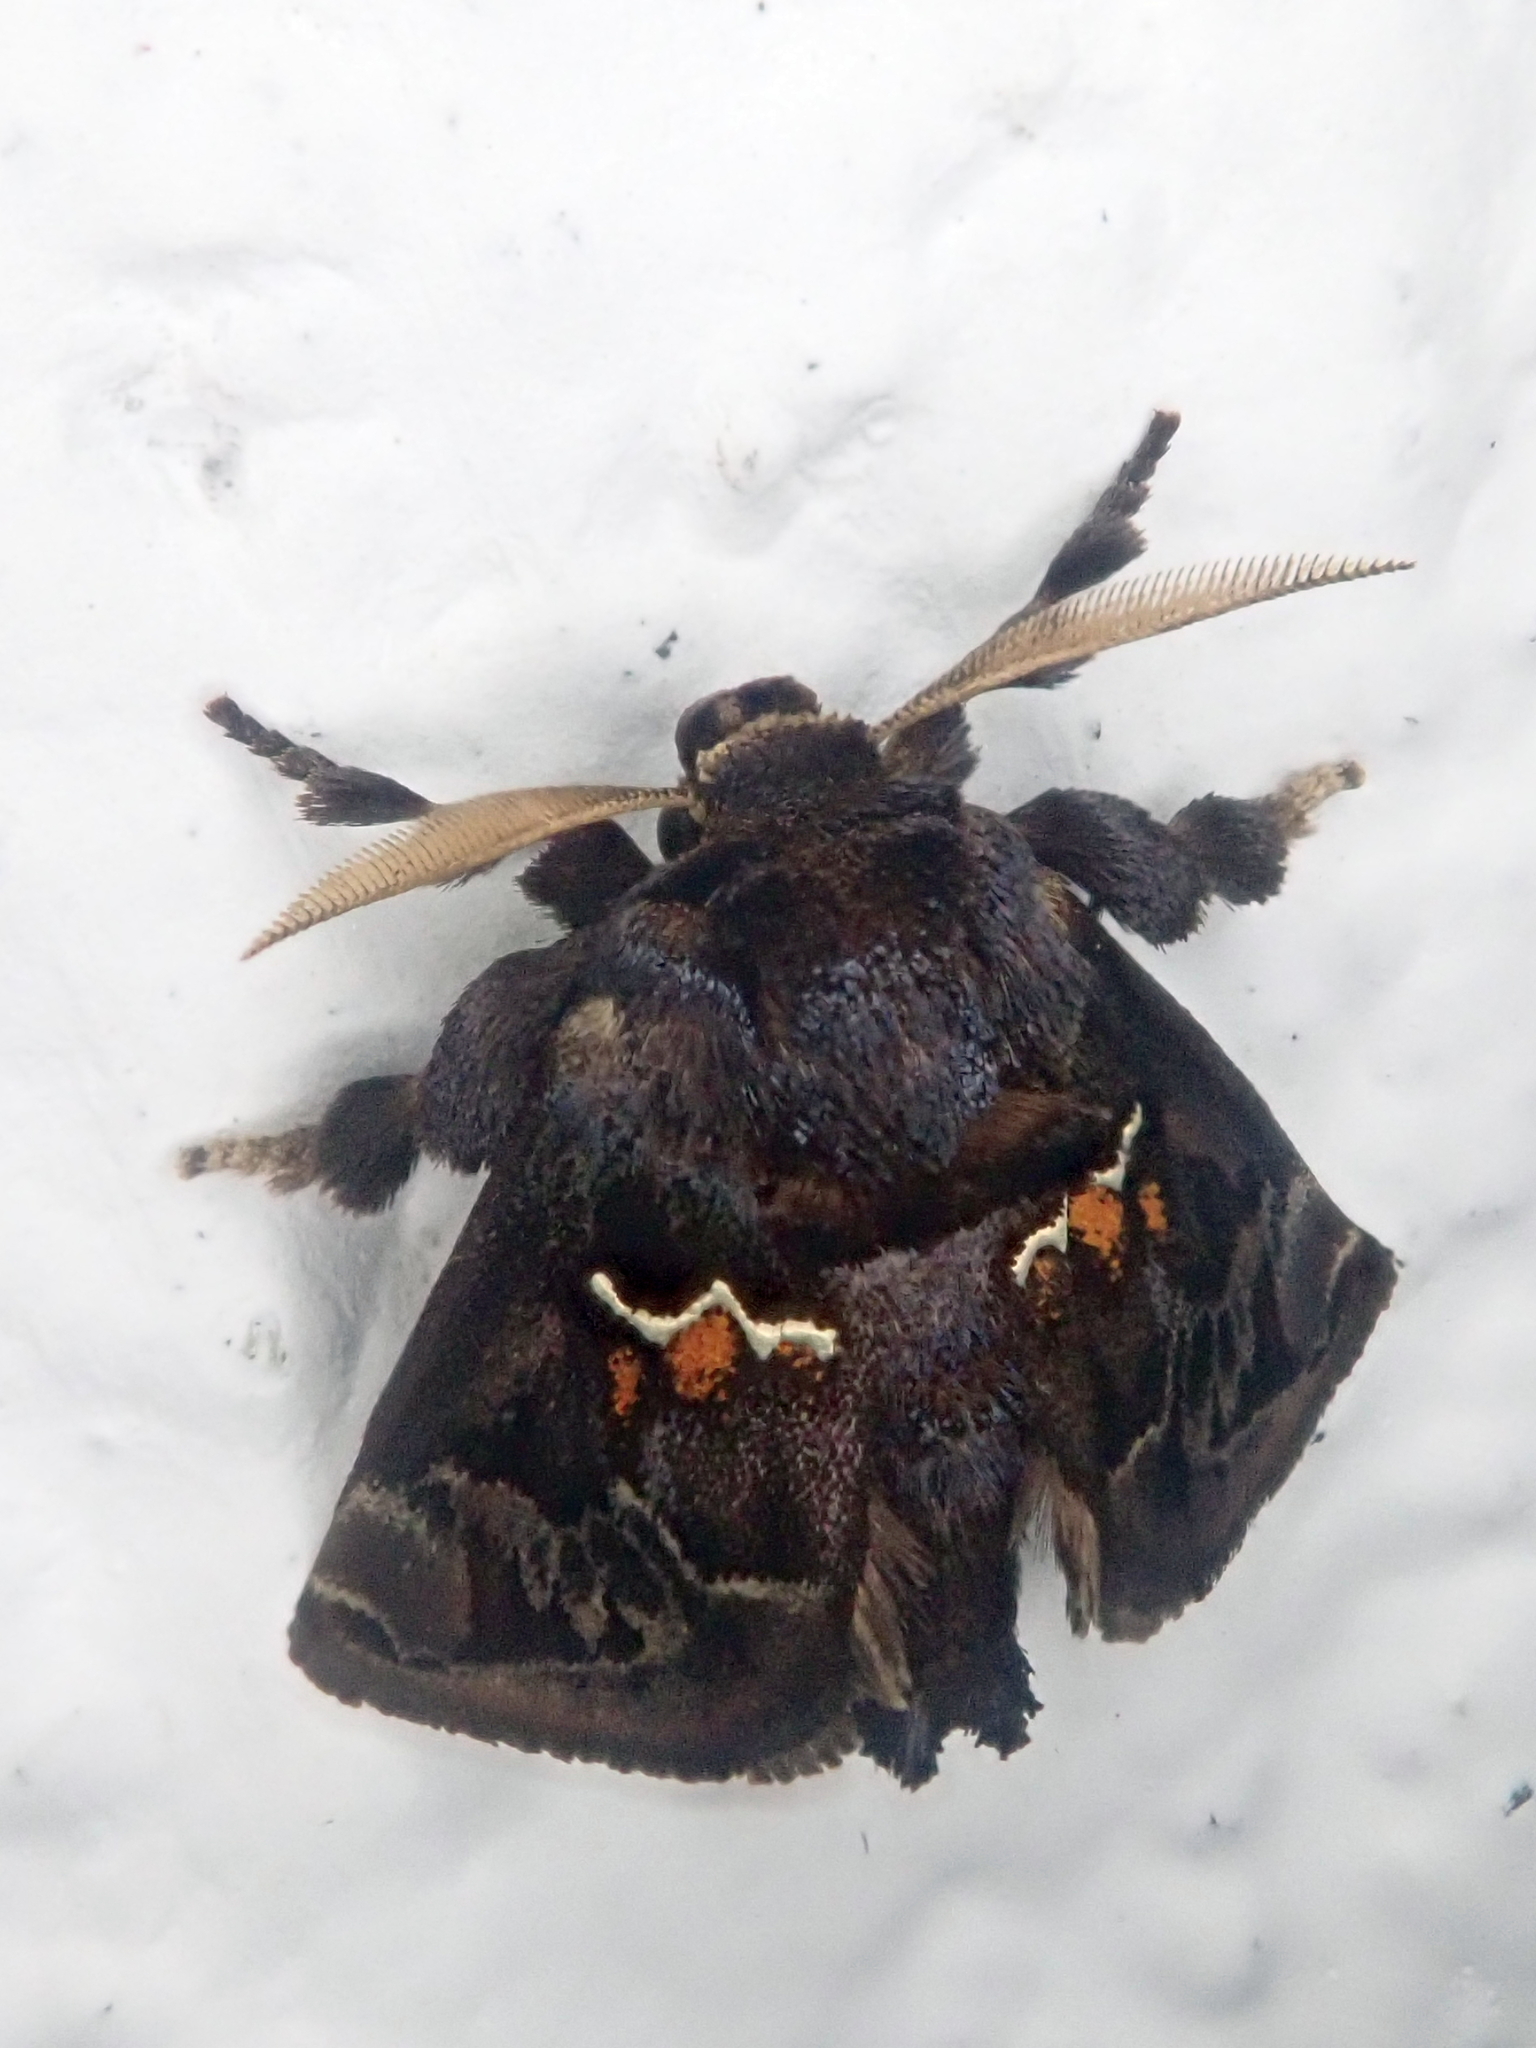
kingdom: Animalia
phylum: Arthropoda
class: Insecta
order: Lepidoptera
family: Limacodidae
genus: Semyra
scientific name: Semyra
